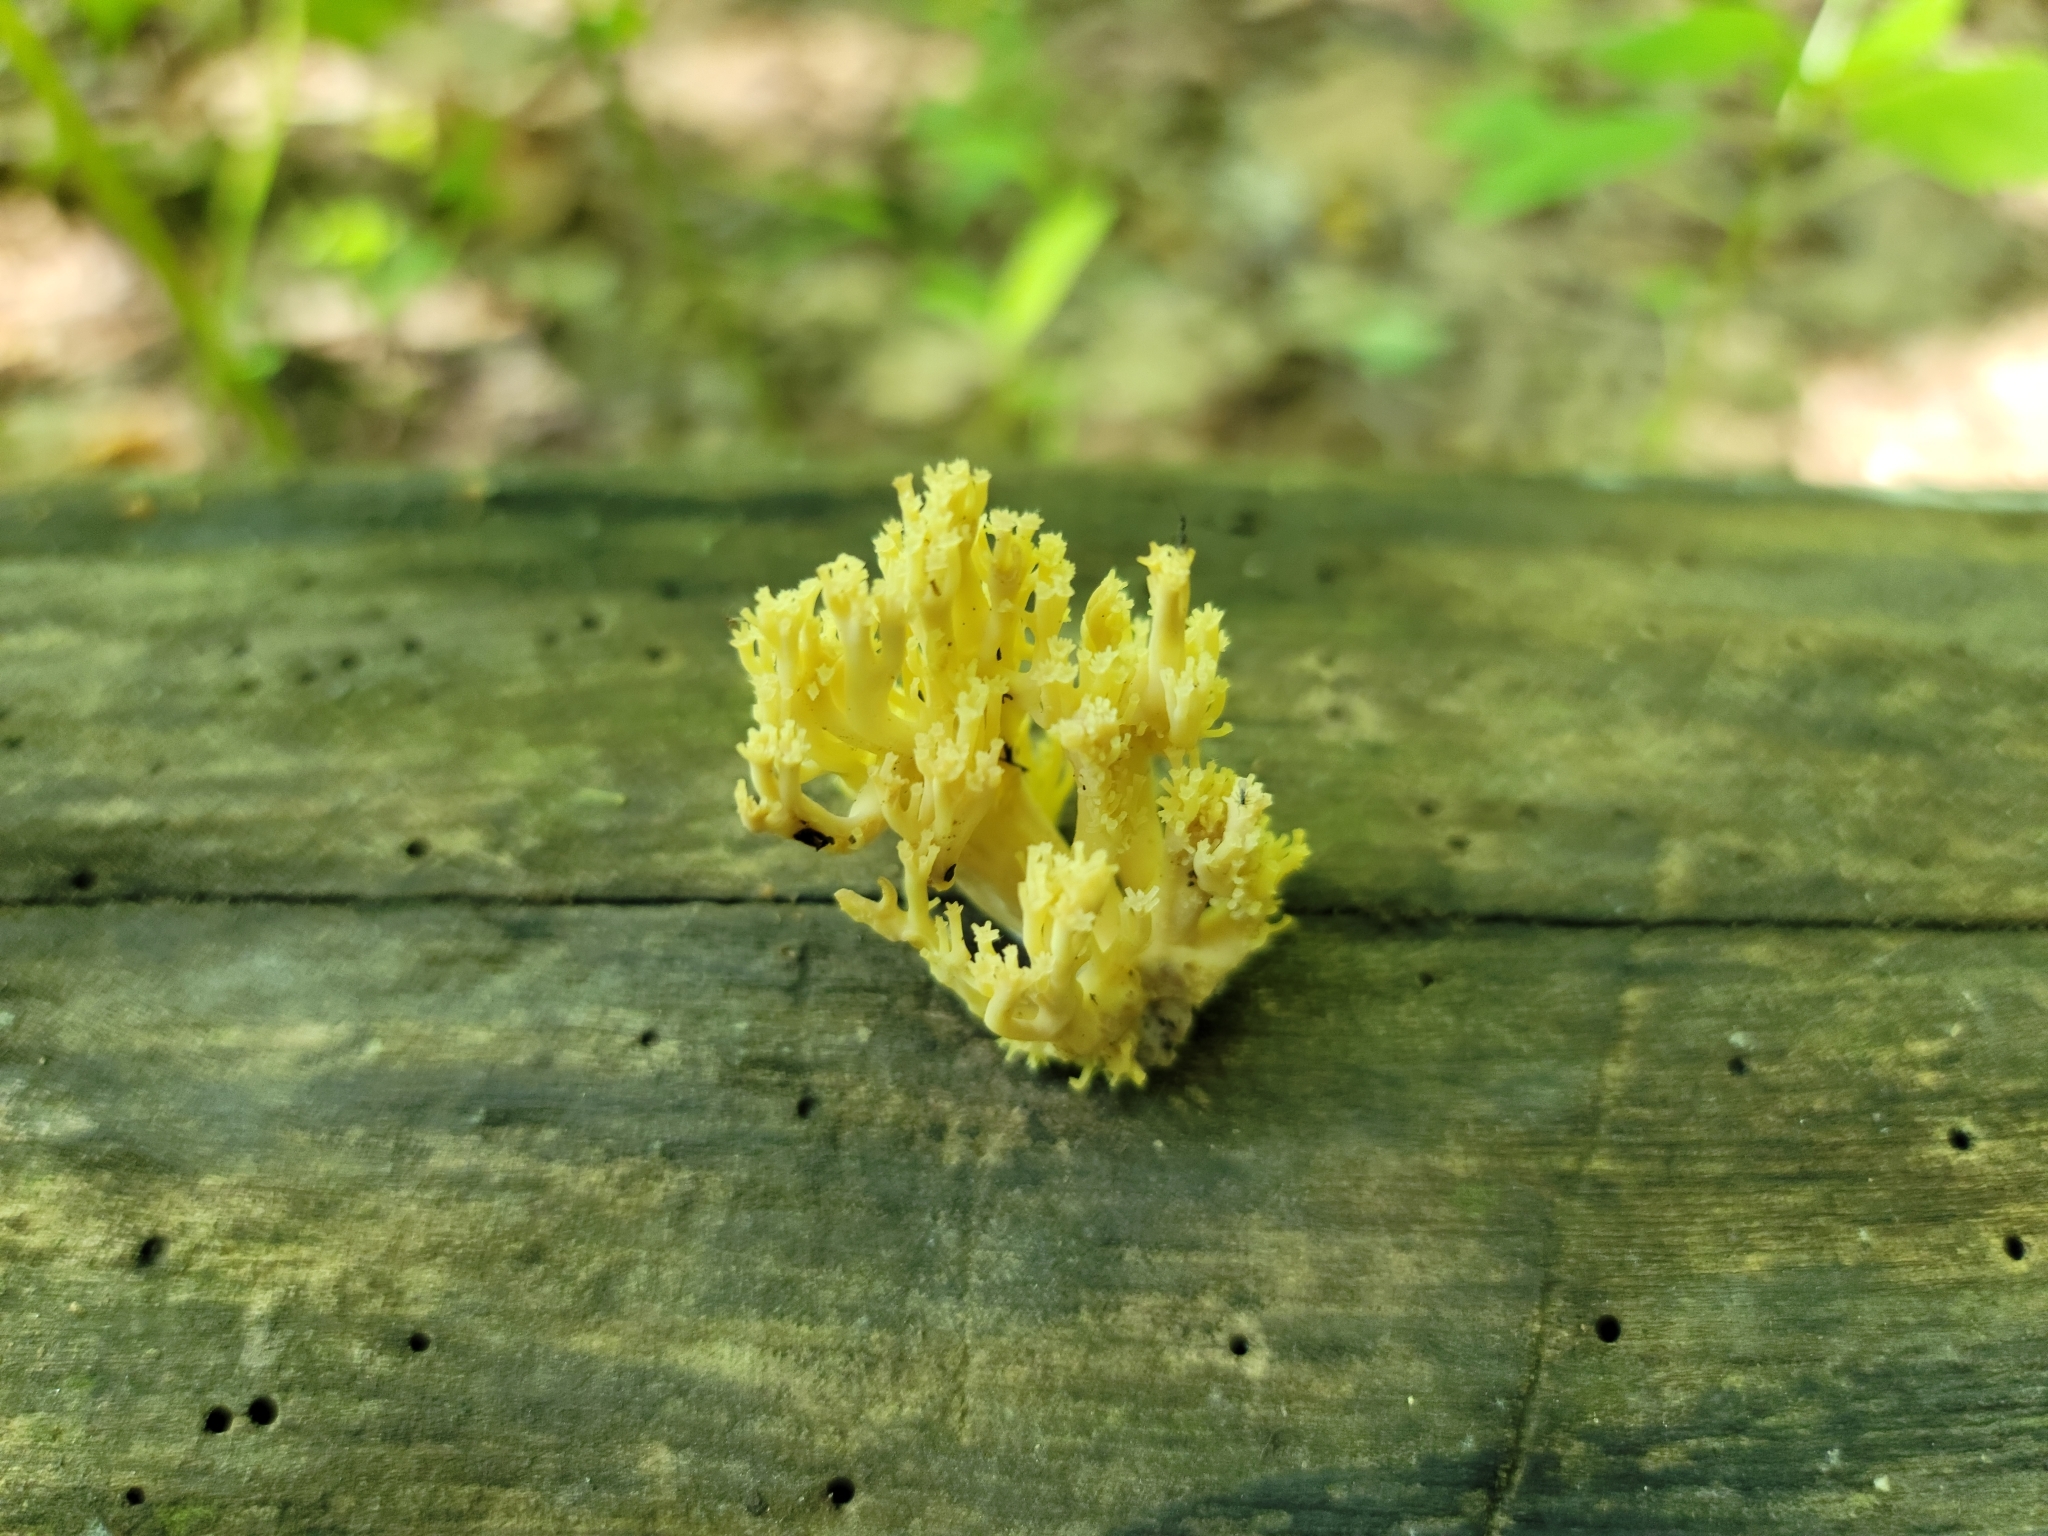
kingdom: Fungi
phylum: Basidiomycota
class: Agaricomycetes
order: Russulales
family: Auriscalpiaceae
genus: Artomyces
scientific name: Artomyces pyxidatus
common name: Crown-tipped coral fungus
